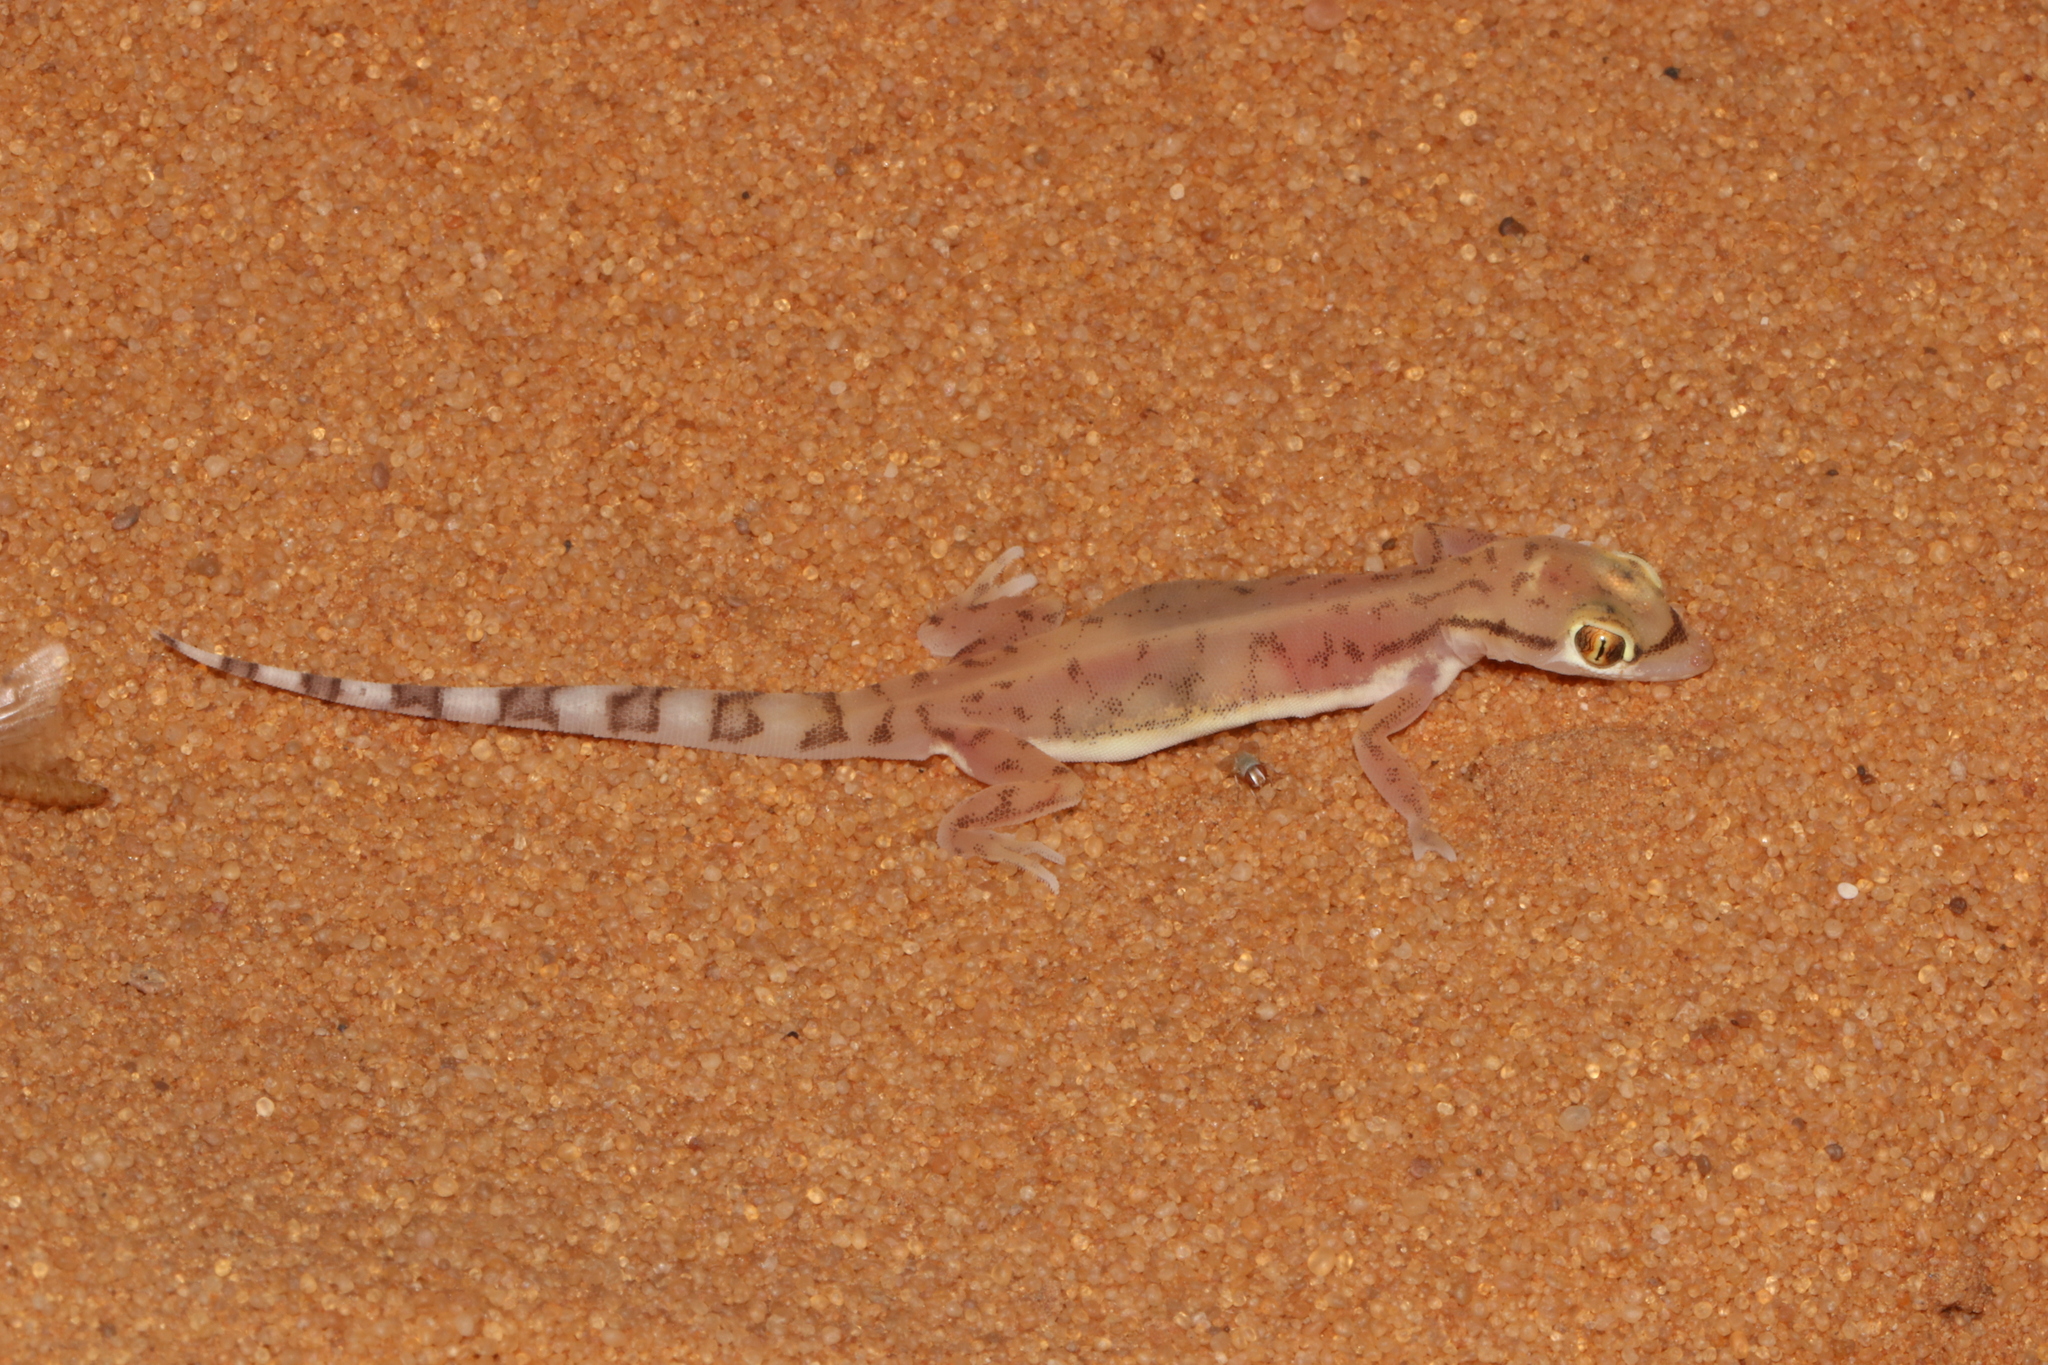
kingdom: Animalia
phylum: Chordata
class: Squamata
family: Gekkonidae
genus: Trigonodactylus
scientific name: Trigonodactylus arabicus
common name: Arabian sand gecko
